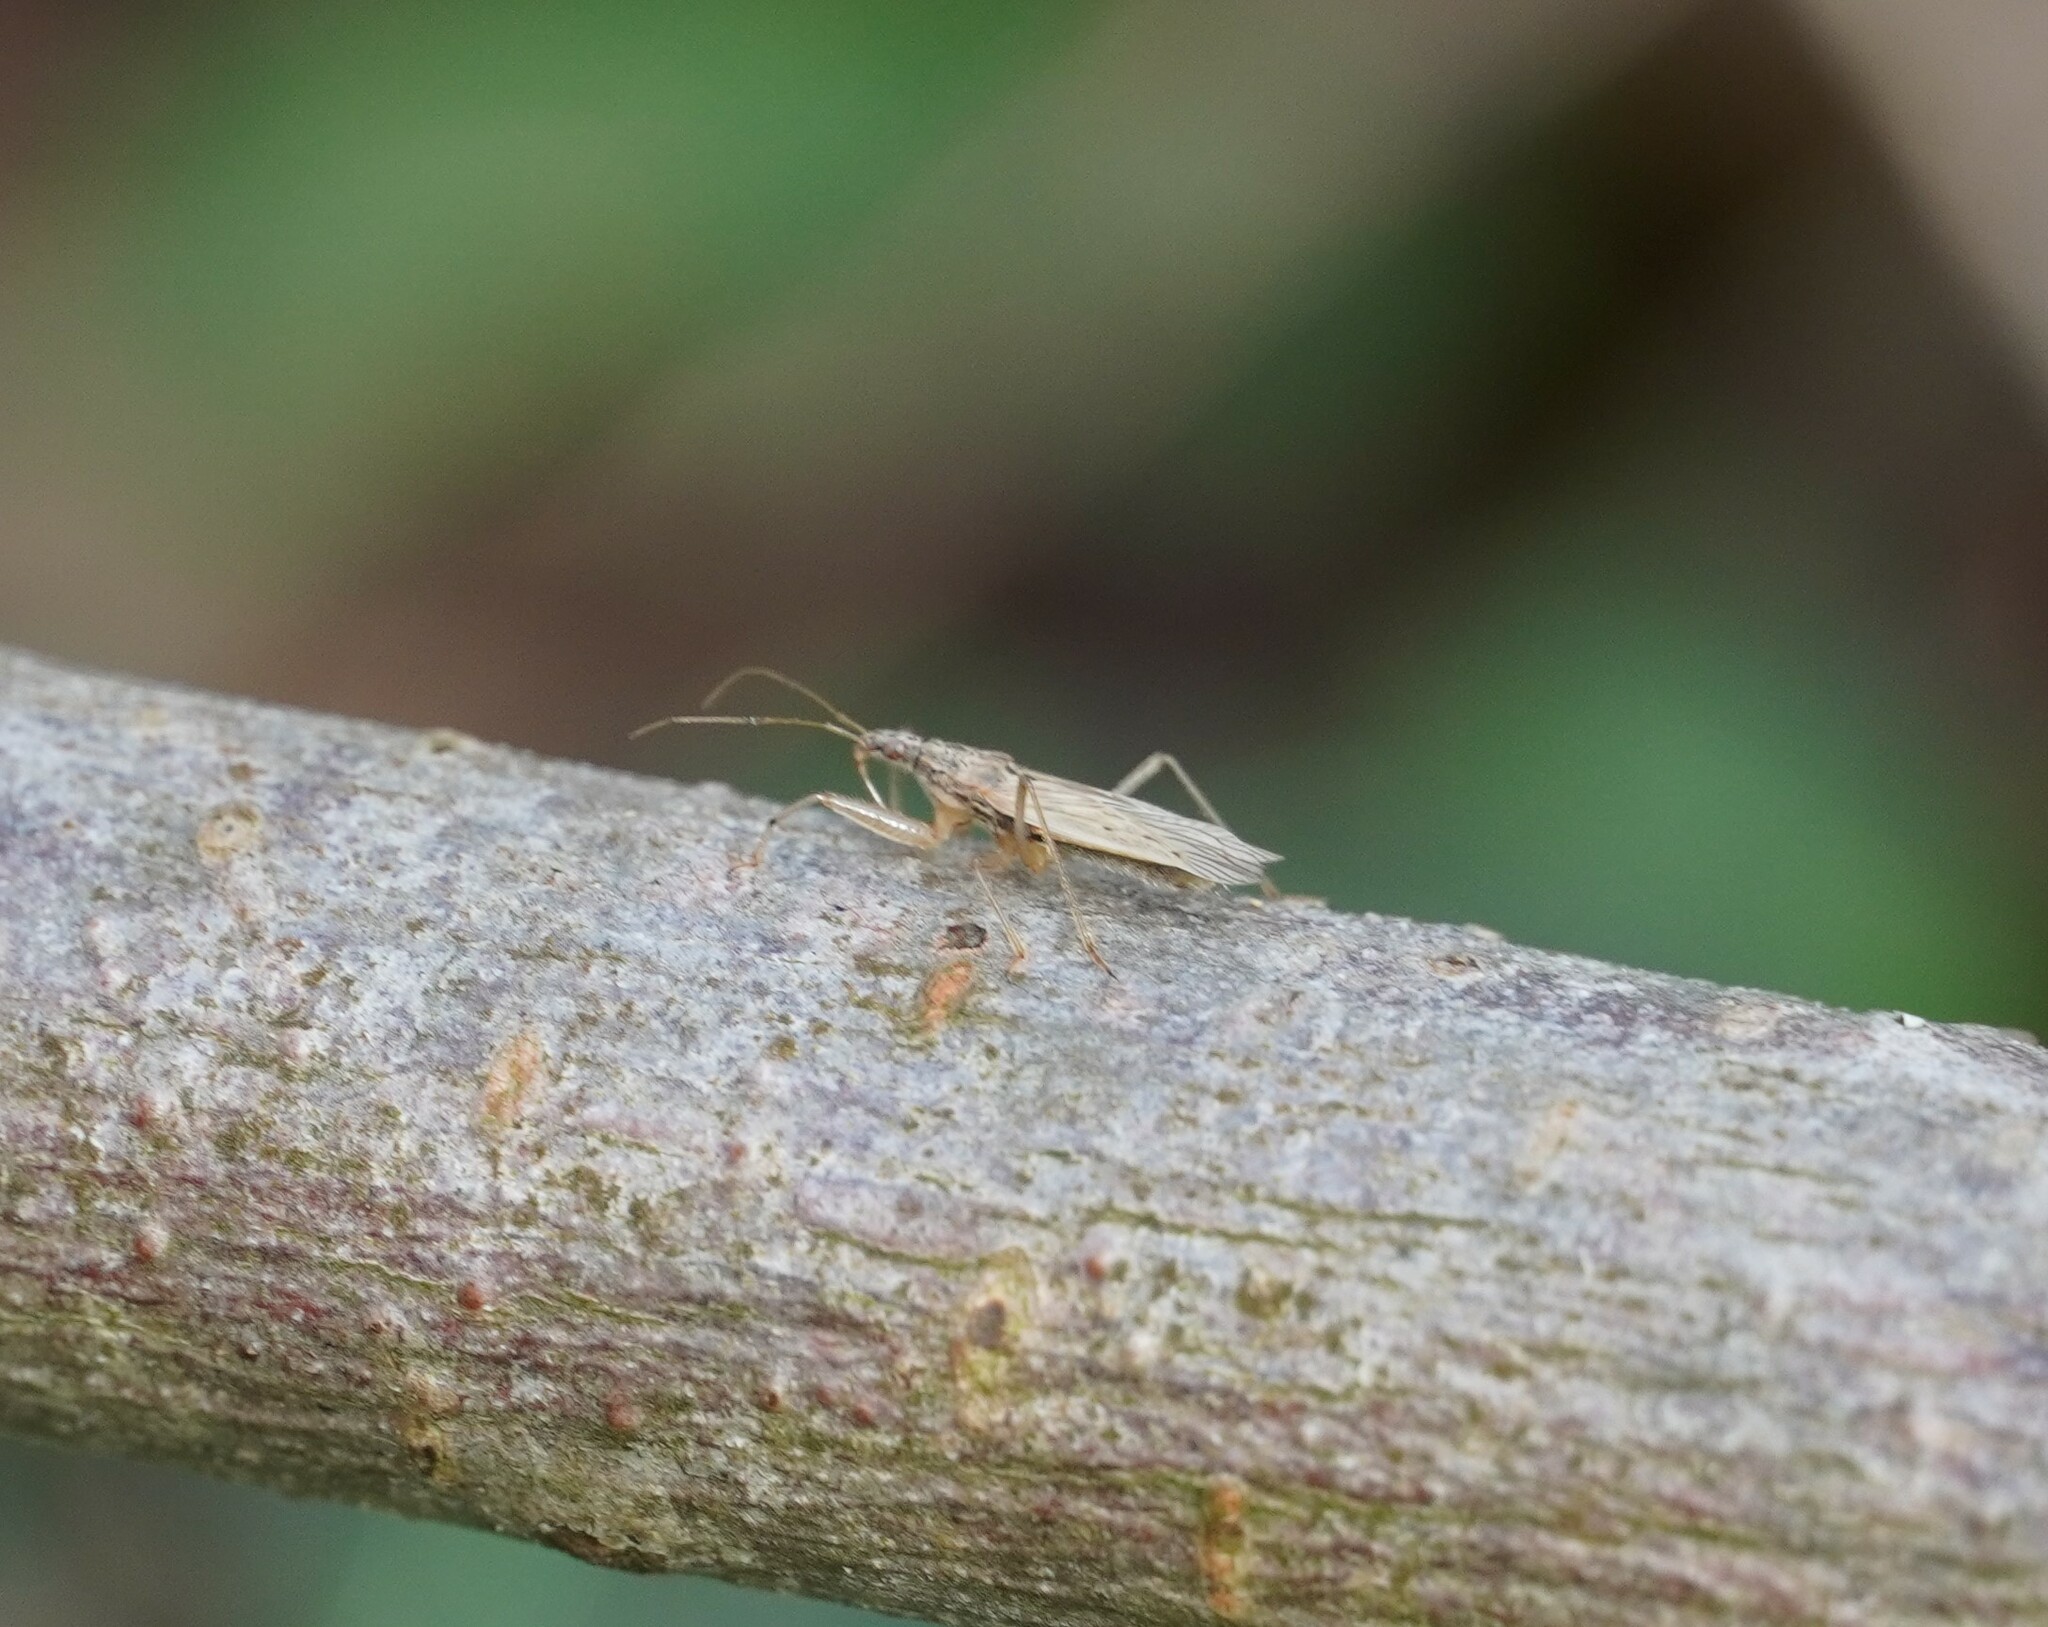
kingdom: Animalia
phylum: Arthropoda
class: Insecta
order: Hemiptera
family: Nabidae
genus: Nabis
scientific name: Nabis
